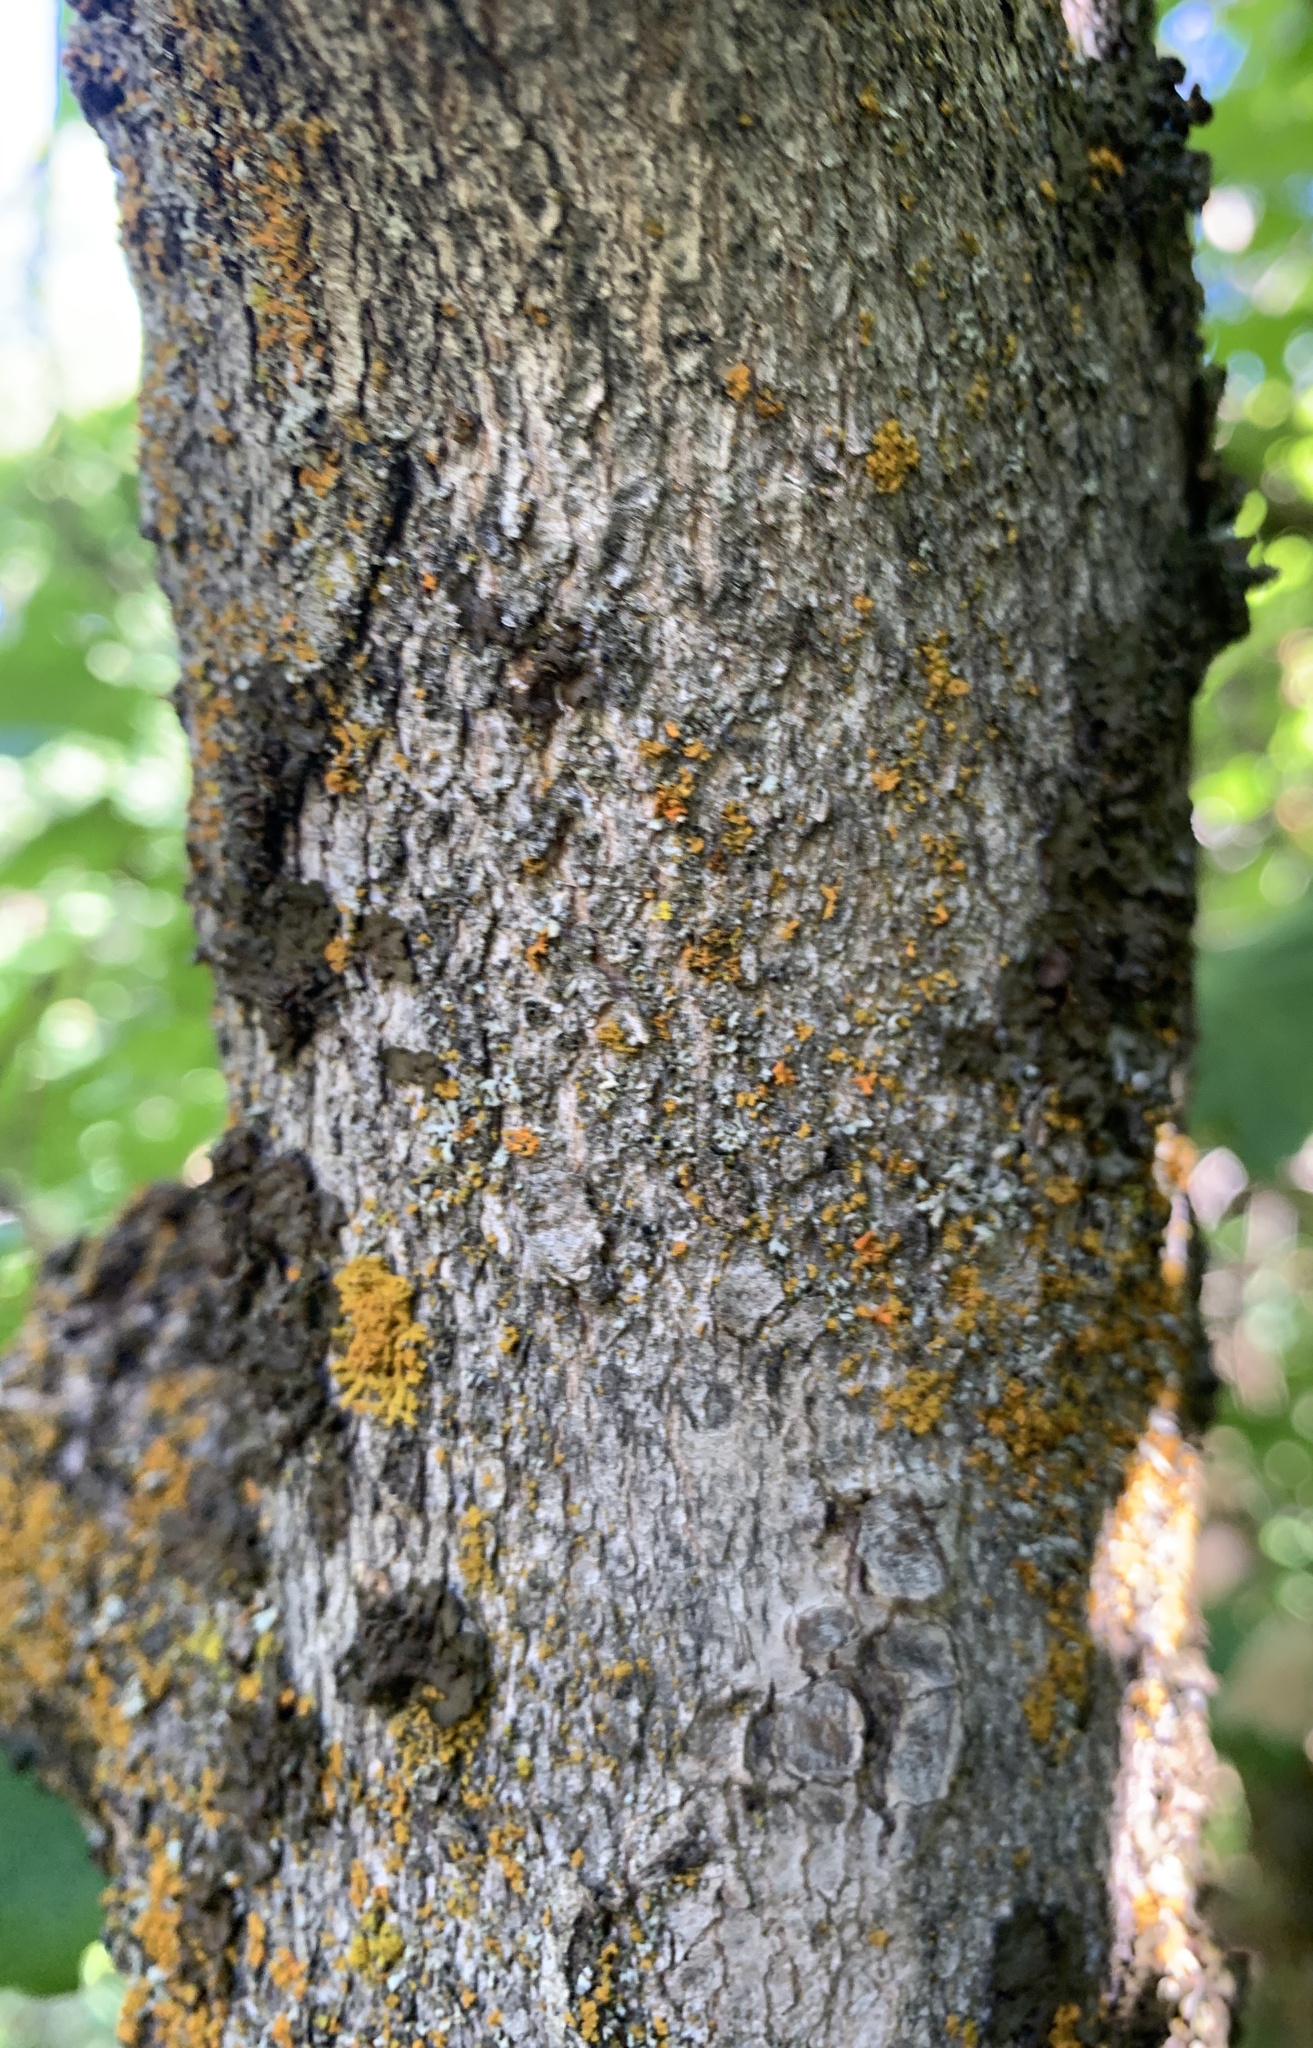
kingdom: Plantae
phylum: Tracheophyta
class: Magnoliopsida
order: Sapindales
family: Sapindaceae
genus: Acer
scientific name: Acer grandidentatum
